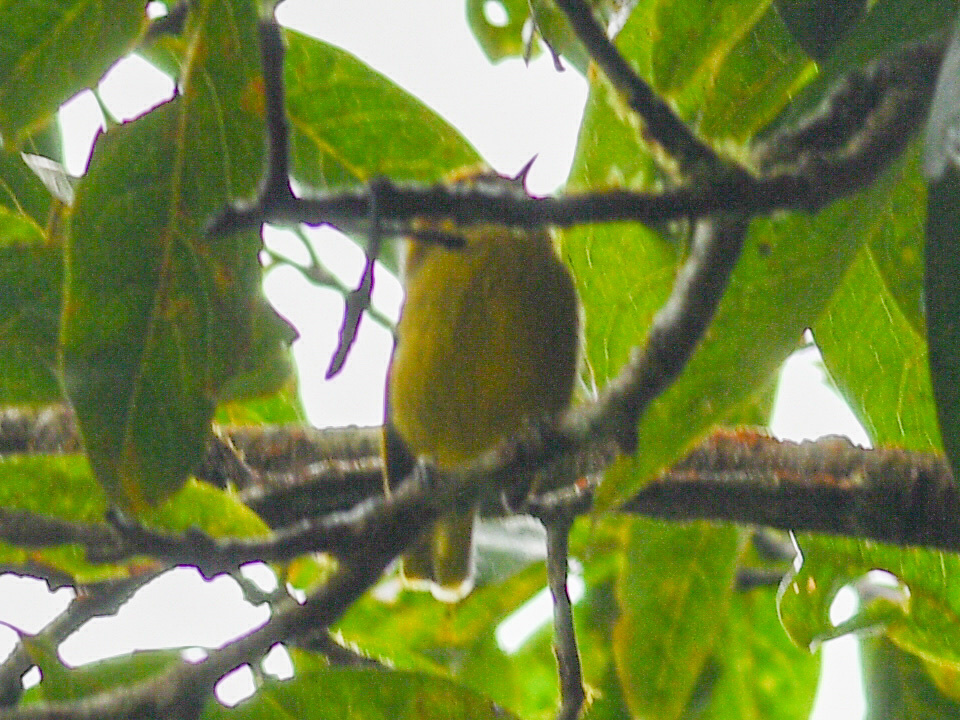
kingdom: Animalia
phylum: Chordata
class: Aves
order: Passeriformes
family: Leiothrichidae
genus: Minla
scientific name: Minla strigula
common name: Chestnut-tailed minla
